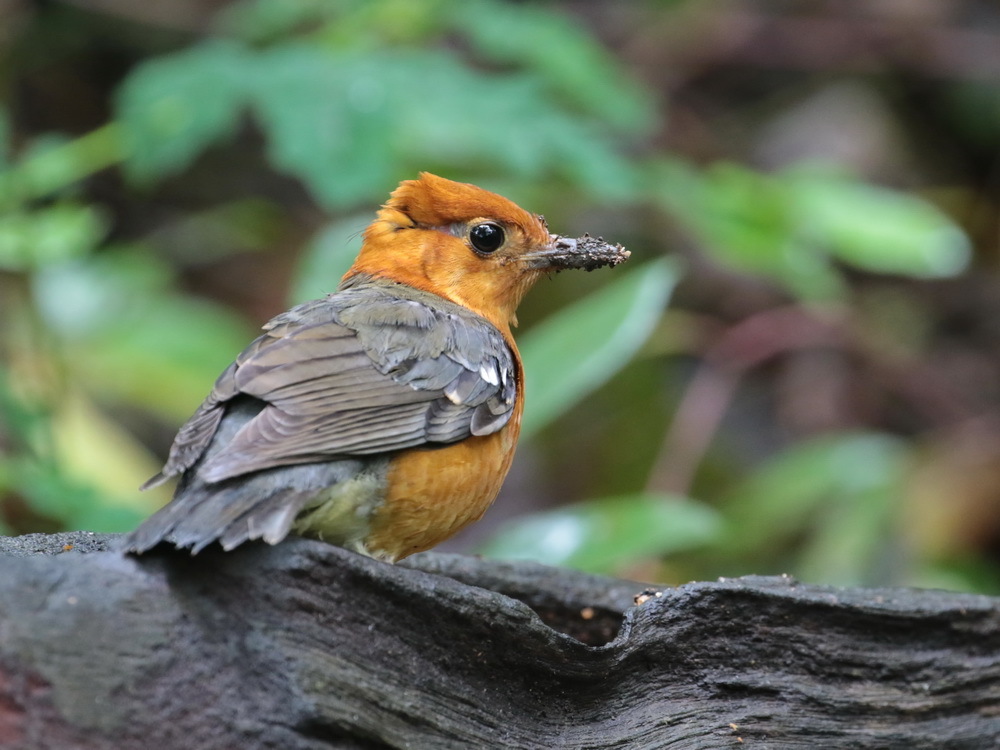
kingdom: Animalia
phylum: Chordata
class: Aves
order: Passeriformes
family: Turdidae
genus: Geokichla
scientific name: Geokichla citrina
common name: Orange-headed thrush
